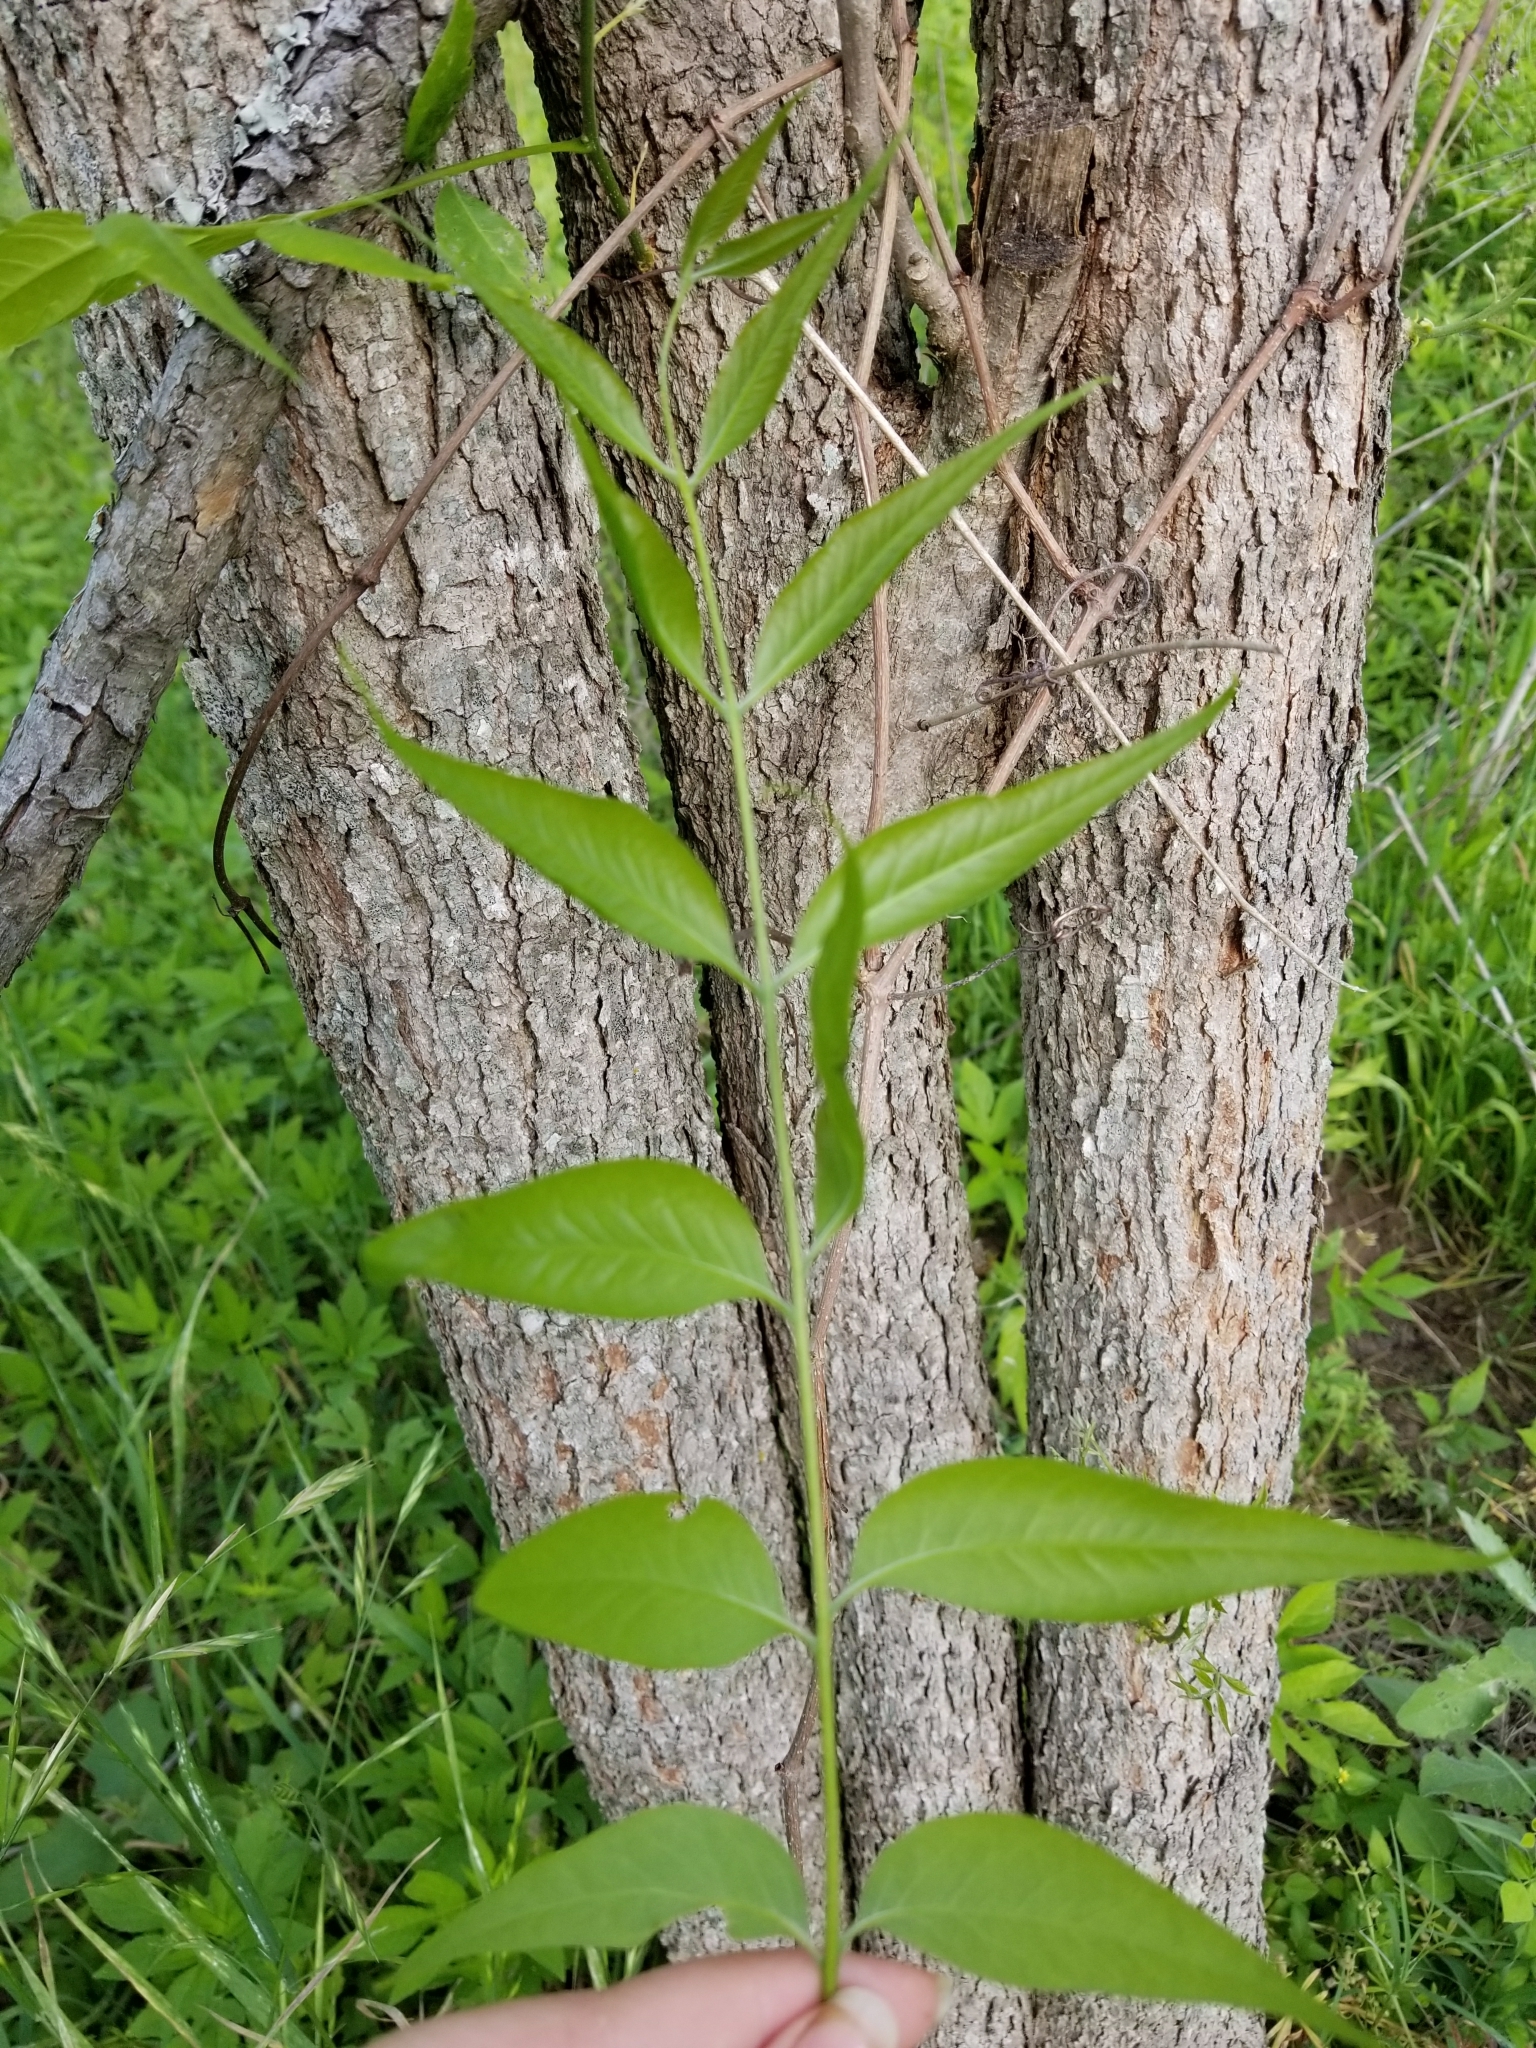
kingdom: Plantae
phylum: Tracheophyta
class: Magnoliopsida
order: Sapindales
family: Sapindaceae
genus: Sapindus
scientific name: Sapindus drummondii
